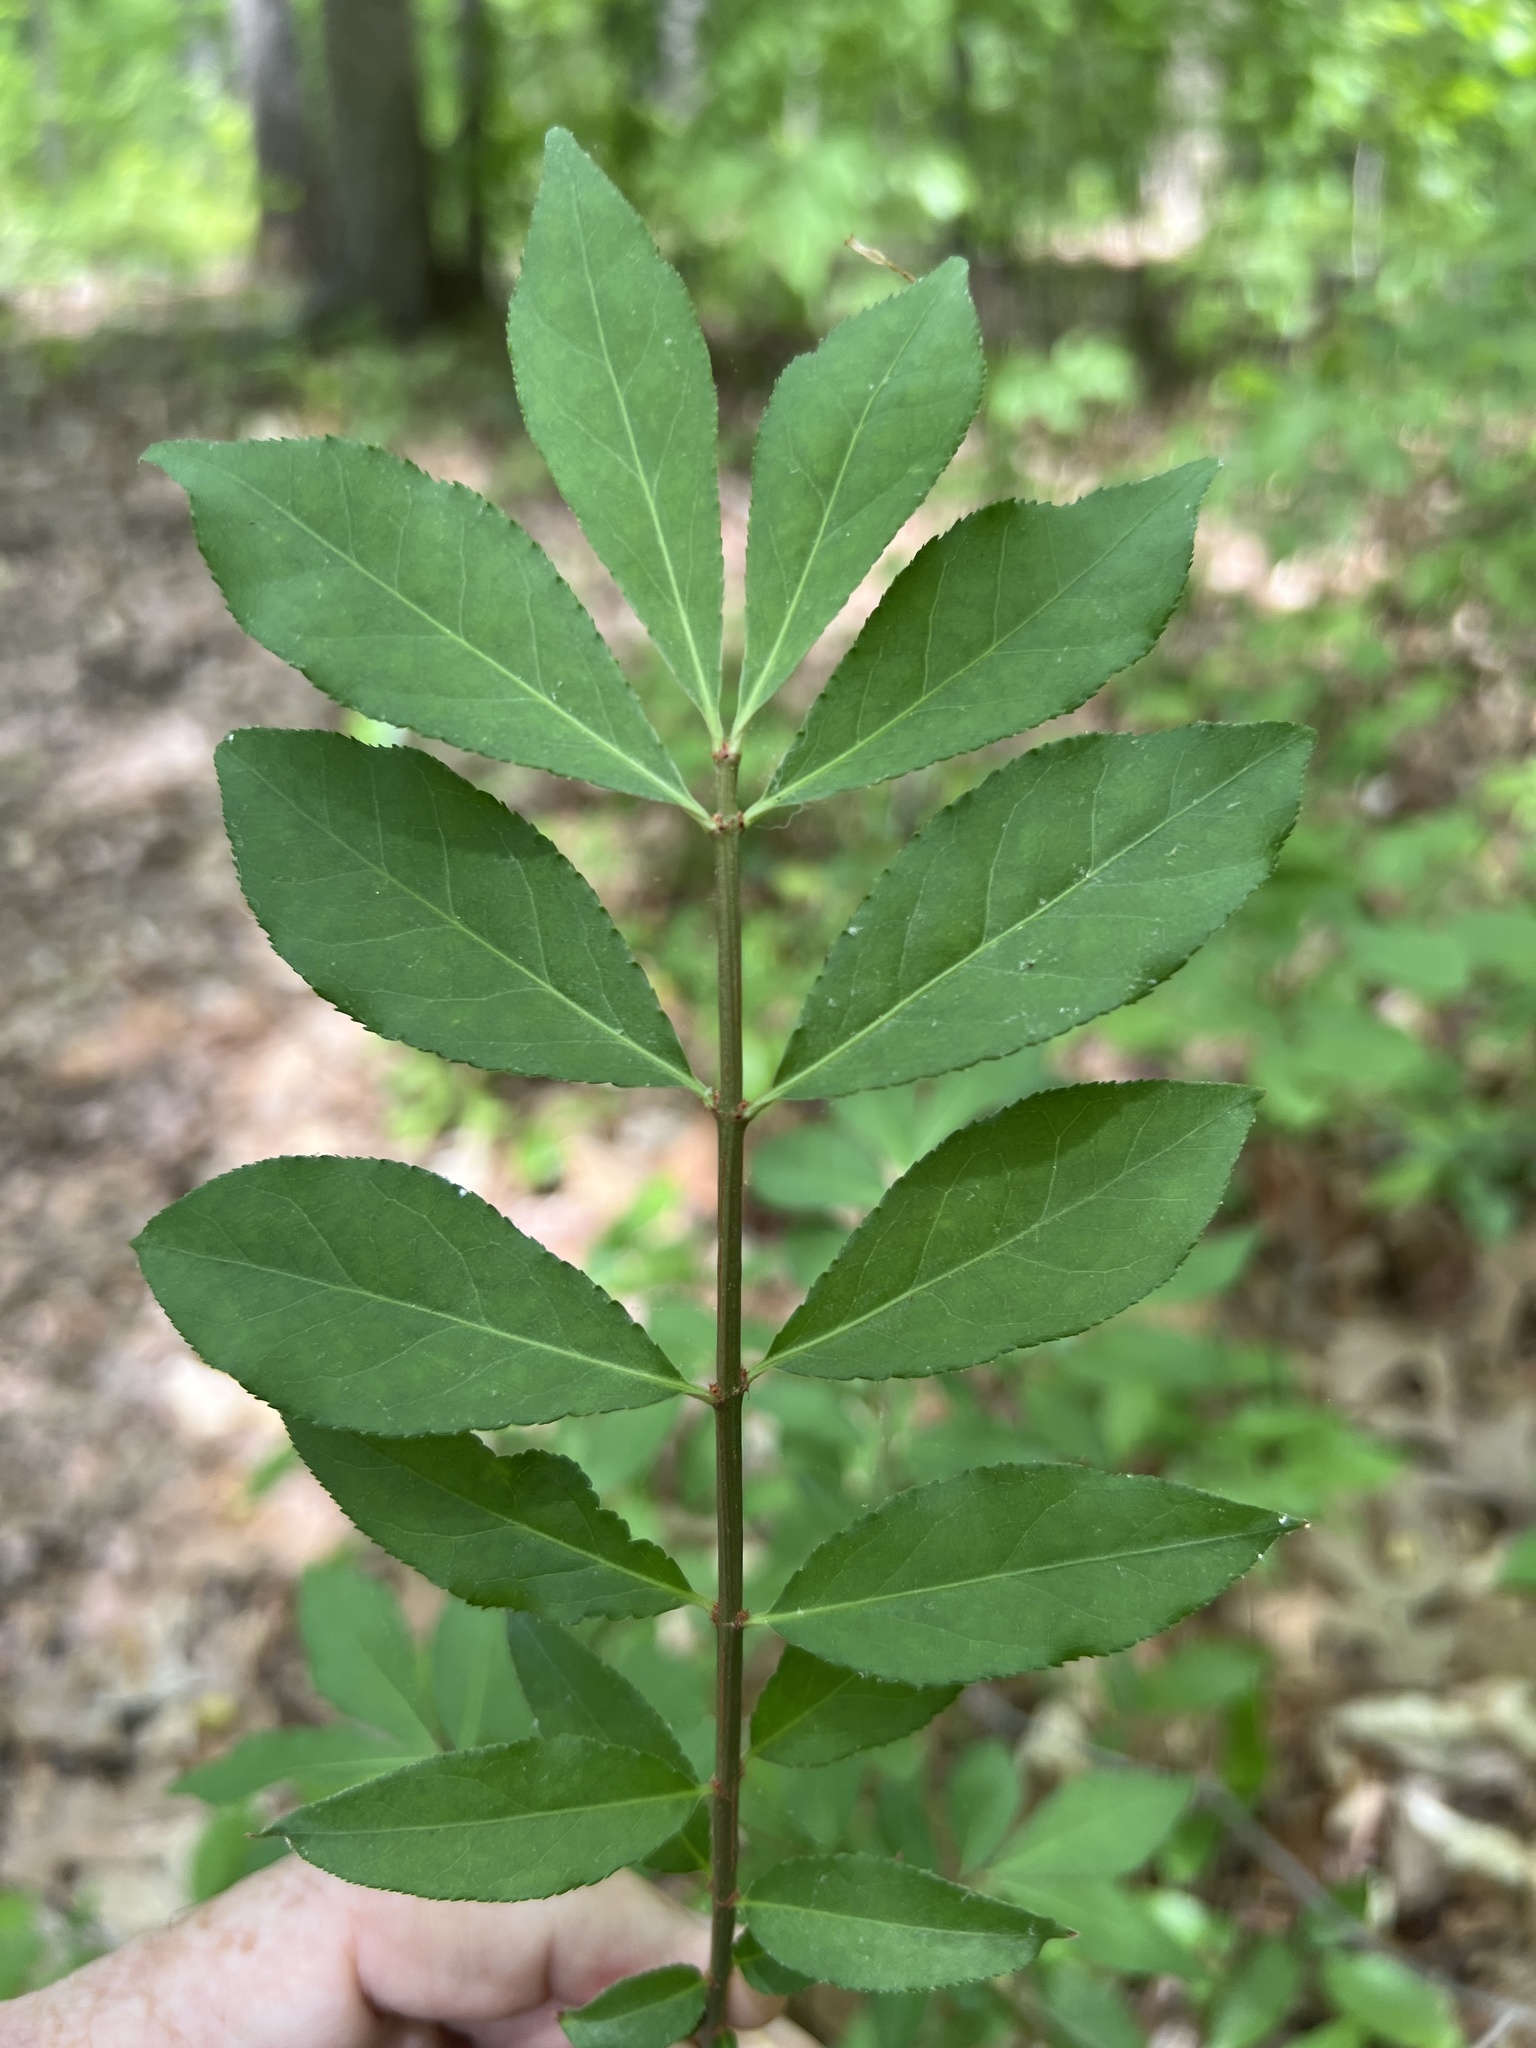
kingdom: Plantae
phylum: Tracheophyta
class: Magnoliopsida
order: Celastrales
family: Celastraceae
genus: Euonymus
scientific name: Euonymus alatus
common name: Winged euonymus
